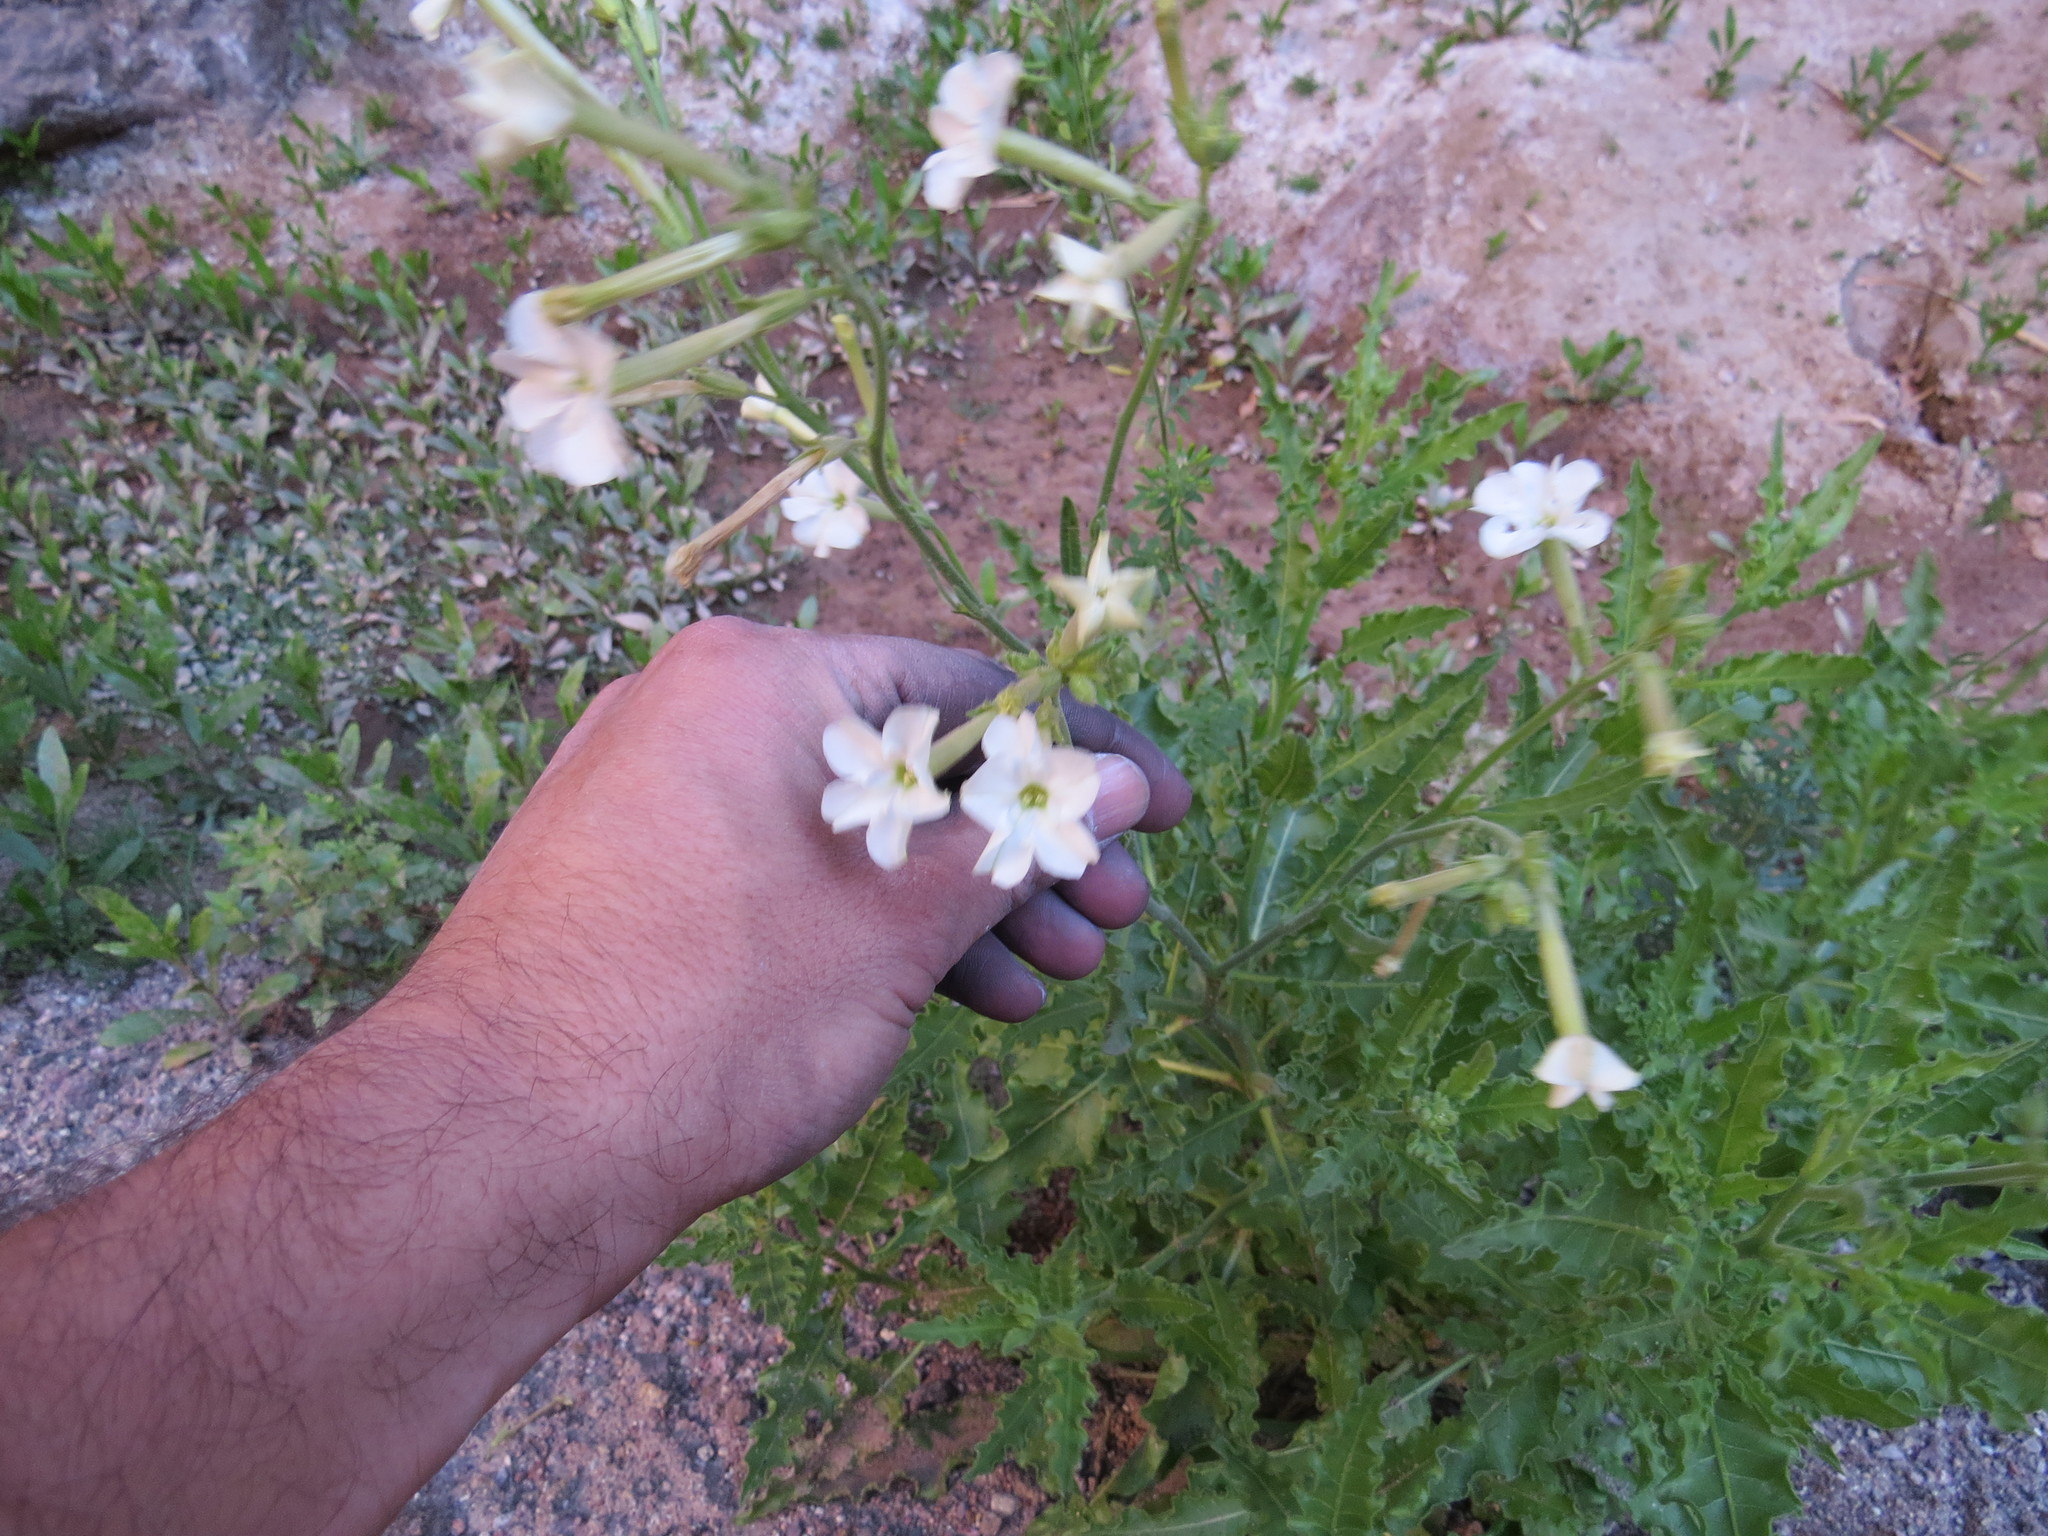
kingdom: Plantae
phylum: Tracheophyta
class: Magnoliopsida
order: Solanales
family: Solanaceae
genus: Nicotiana
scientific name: Nicotiana noctiflora
